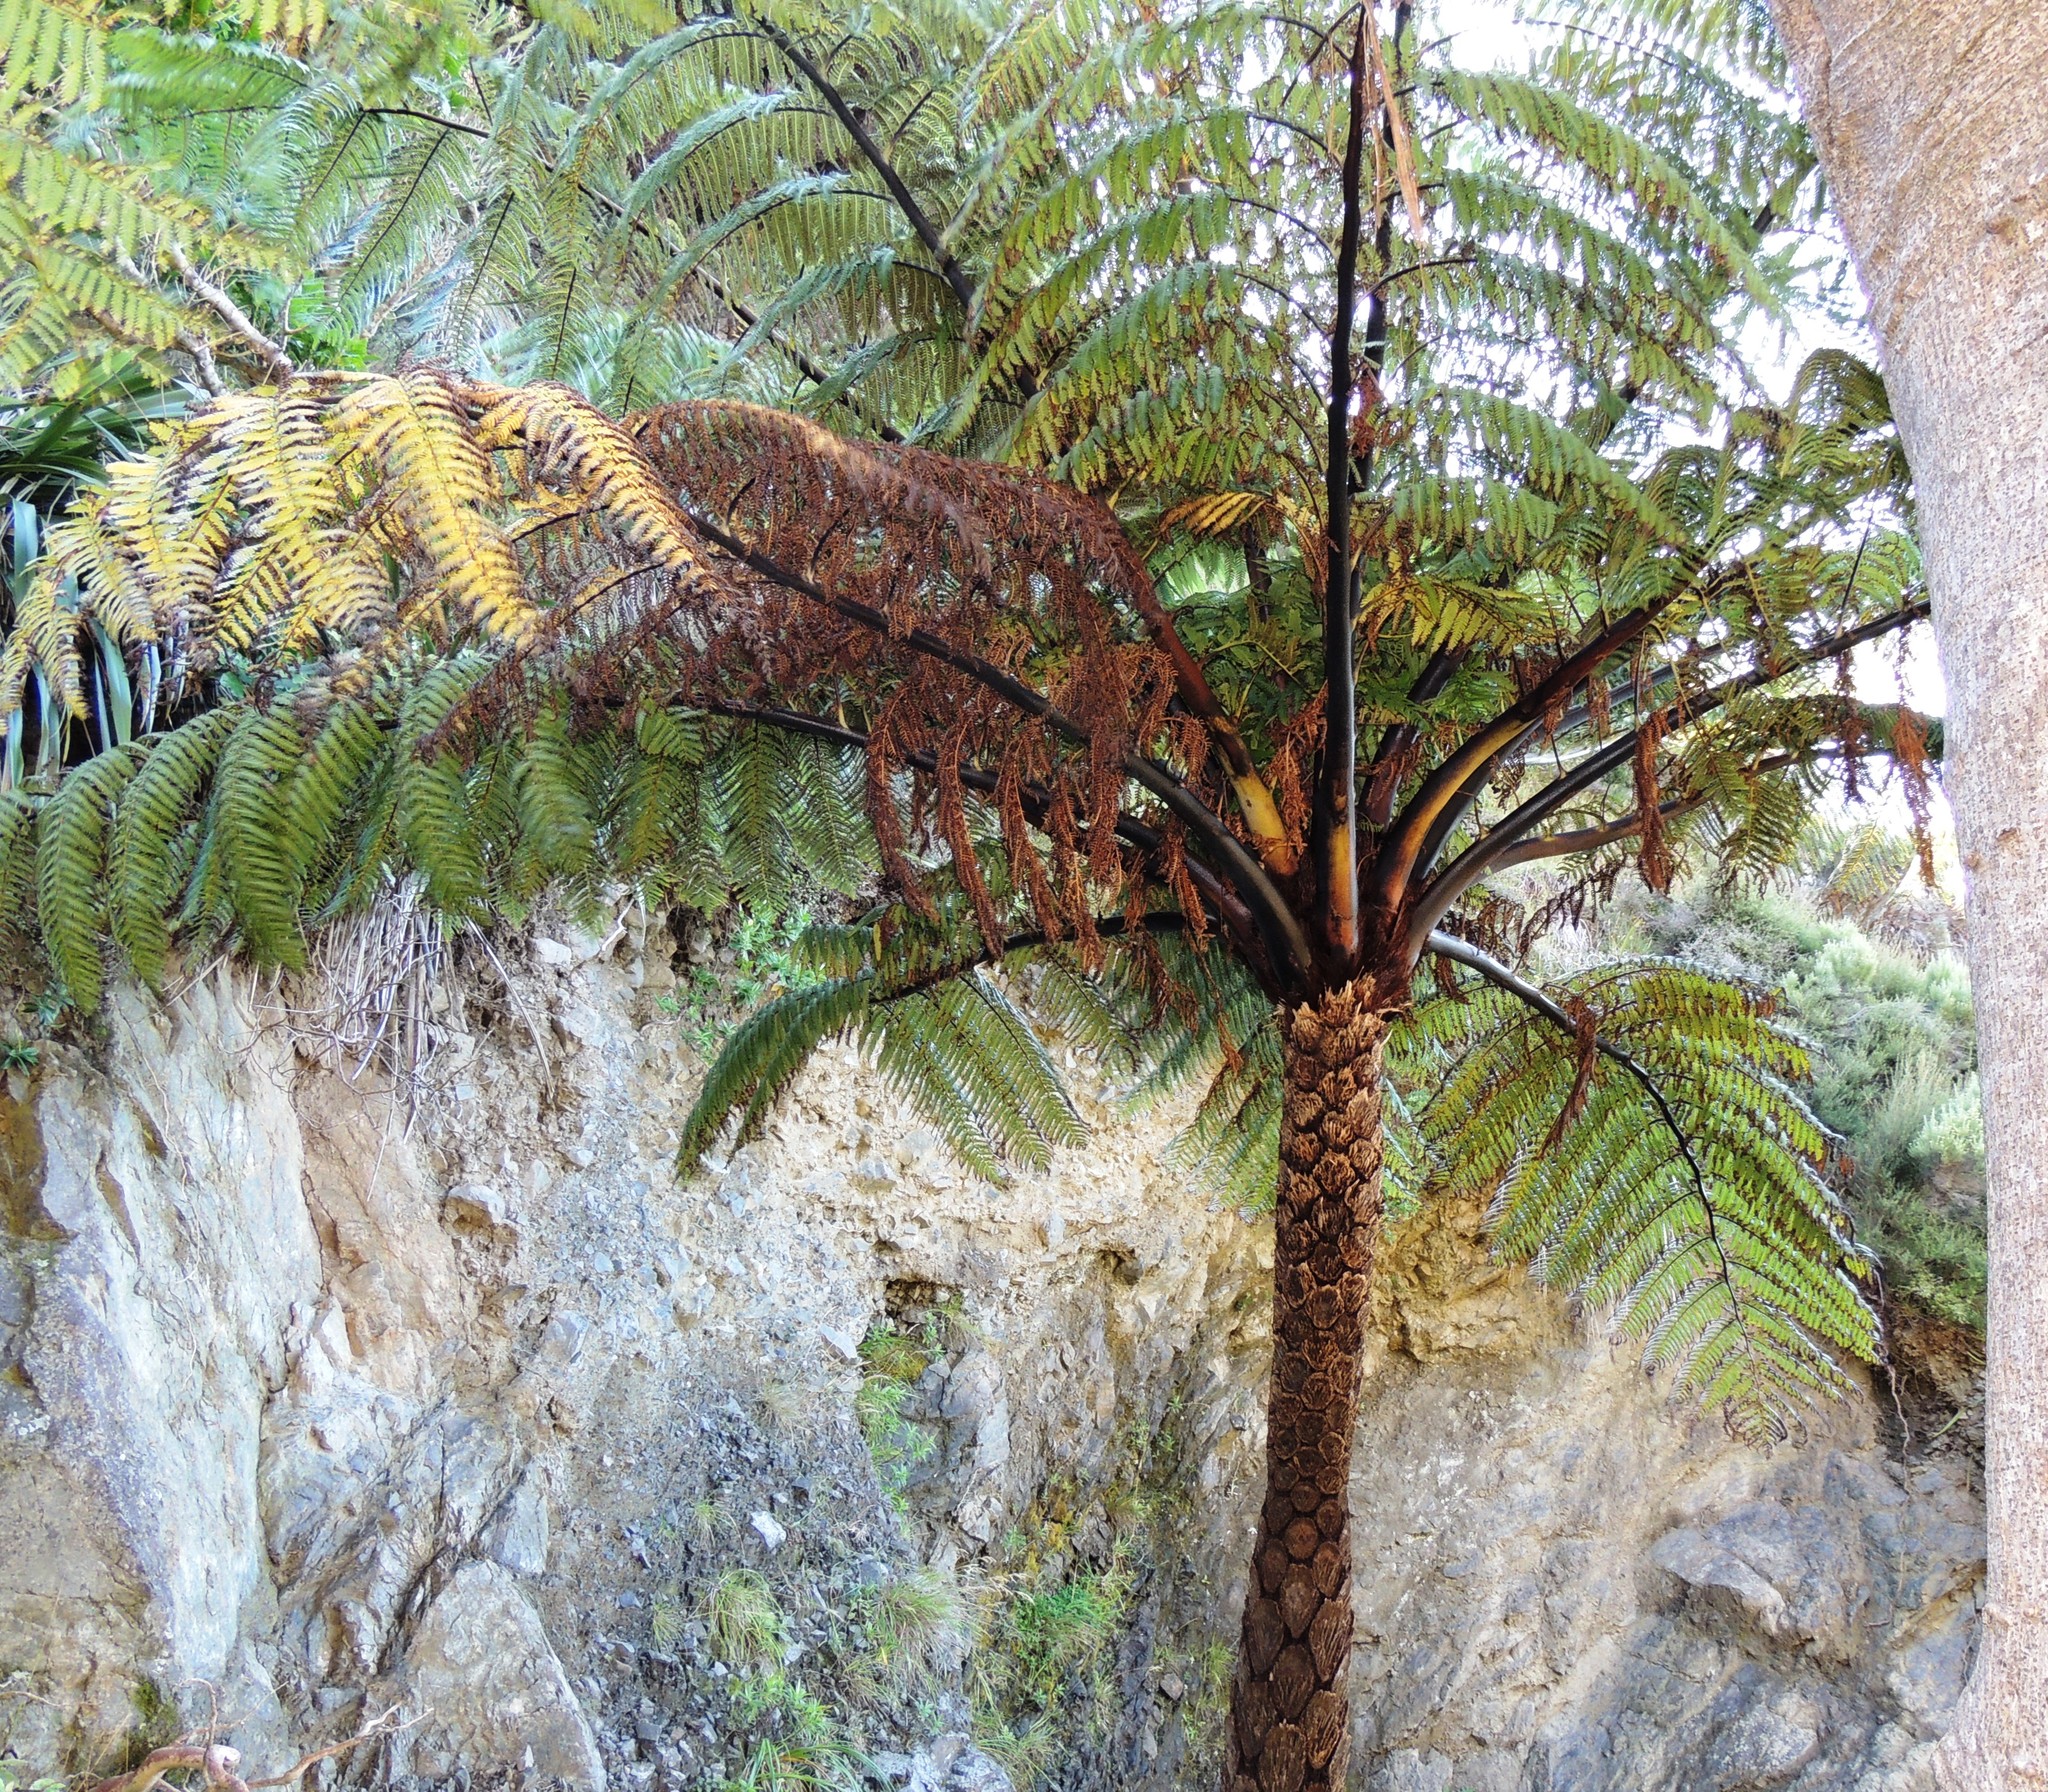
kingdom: Plantae
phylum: Tracheophyta
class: Polypodiopsida
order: Cyatheales
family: Cyatheaceae
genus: Sphaeropteris
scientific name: Sphaeropteris medullaris
